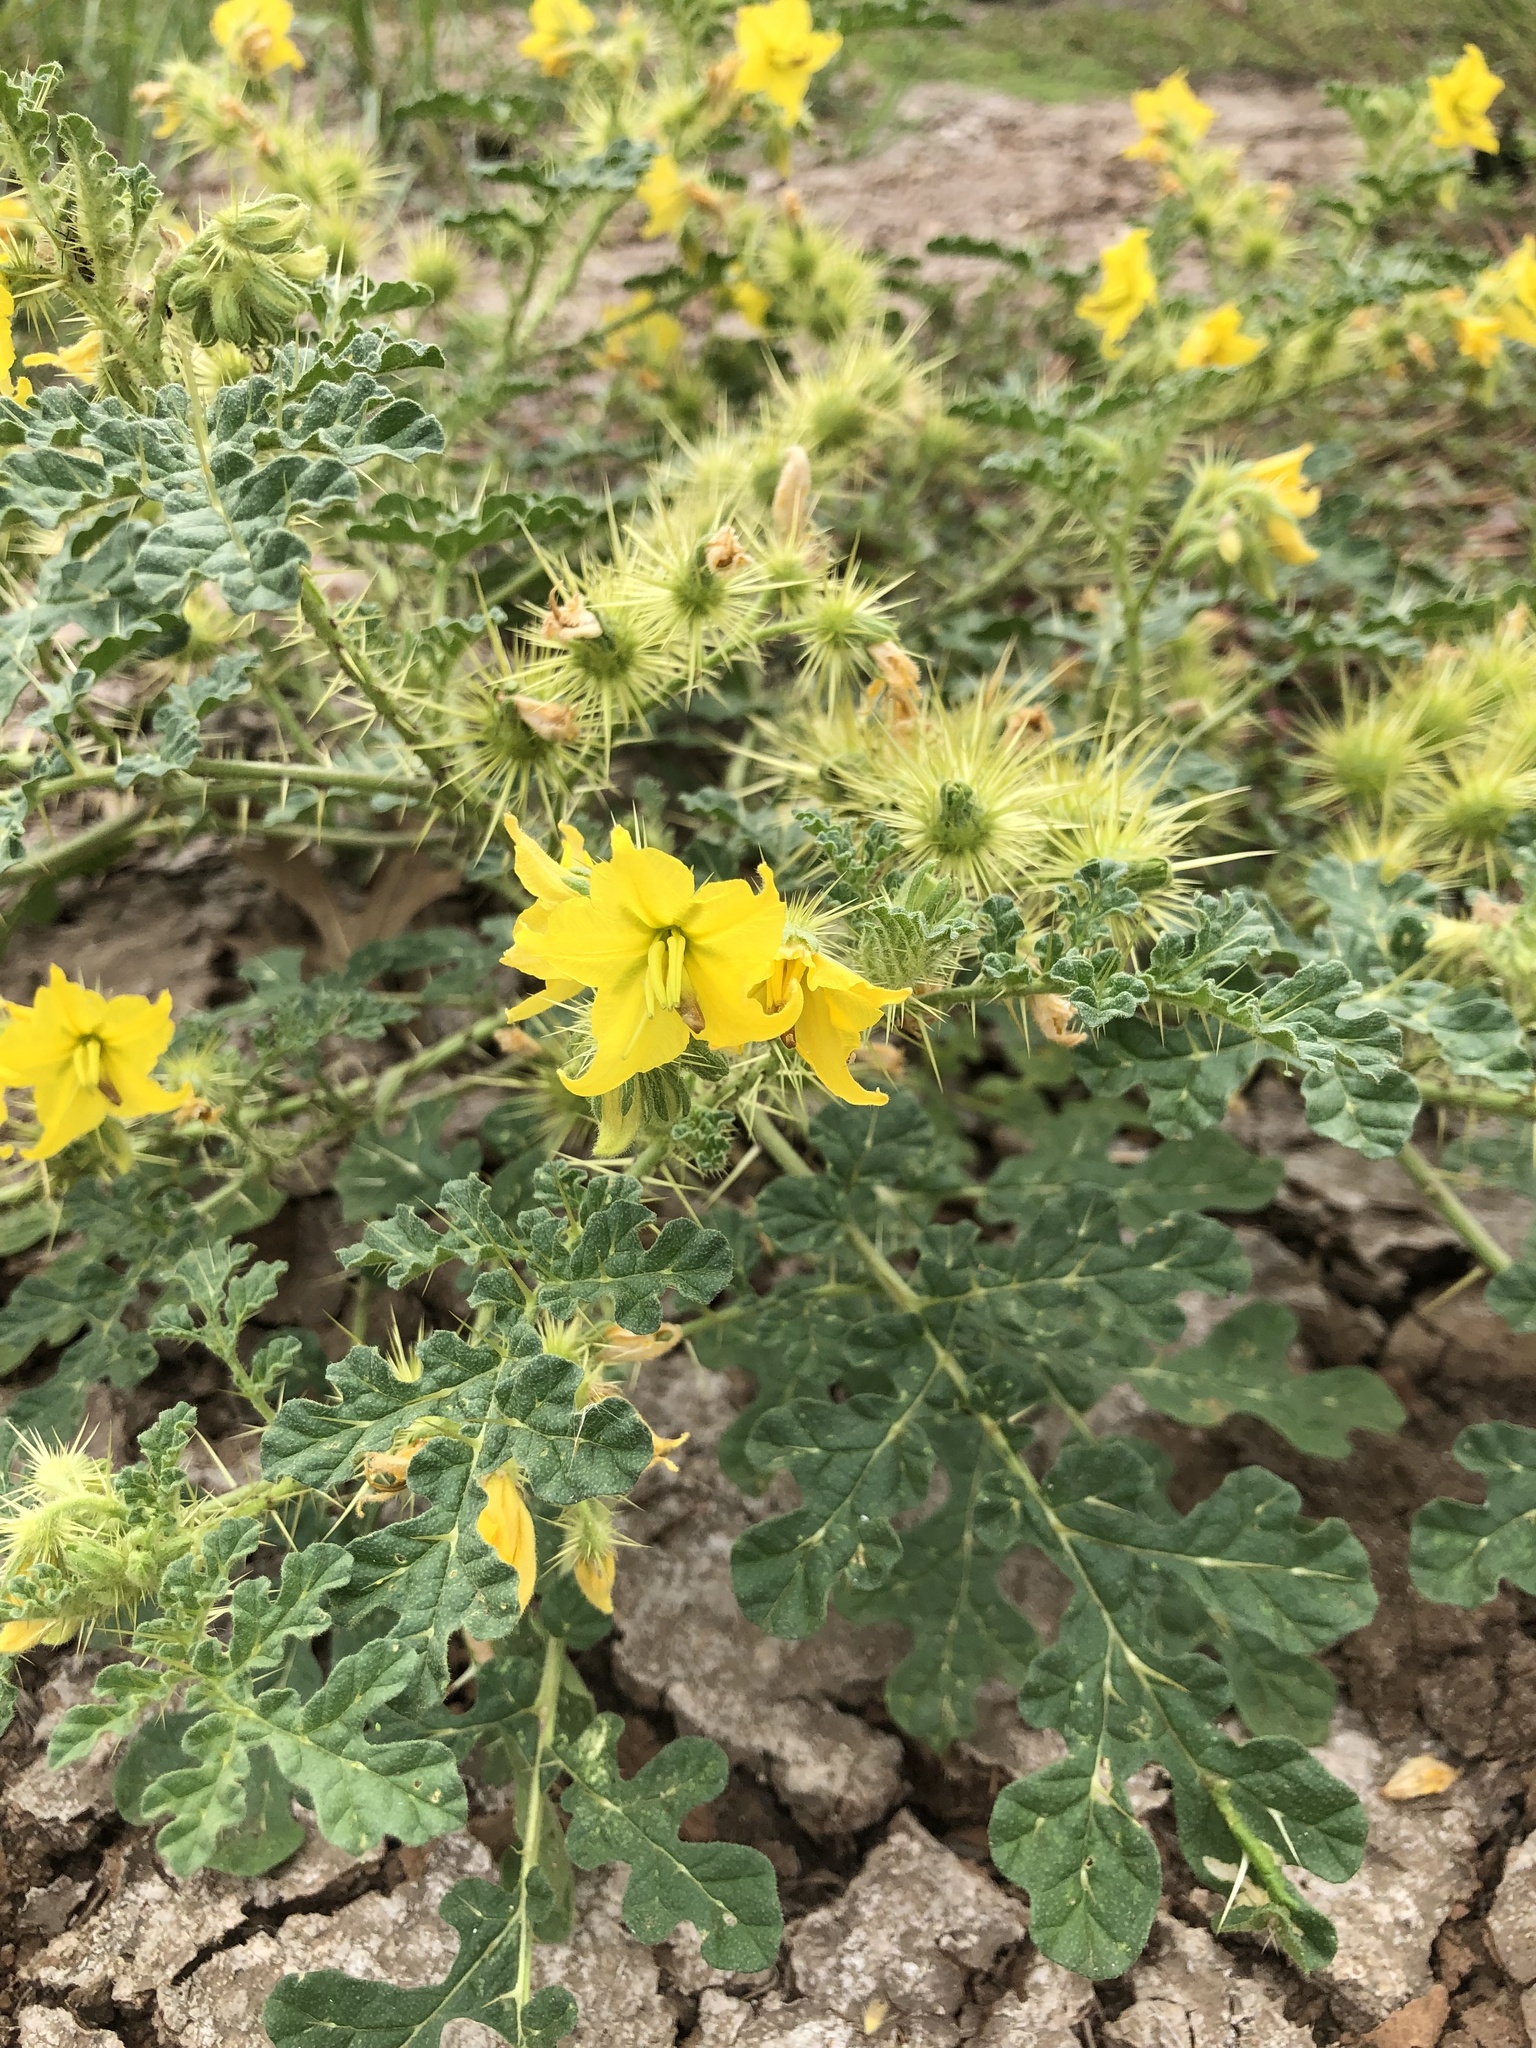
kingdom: Plantae
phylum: Tracheophyta
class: Magnoliopsida
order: Solanales
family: Solanaceae
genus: Solanum
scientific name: Solanum angustifolium
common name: Buffalobur nightshade
